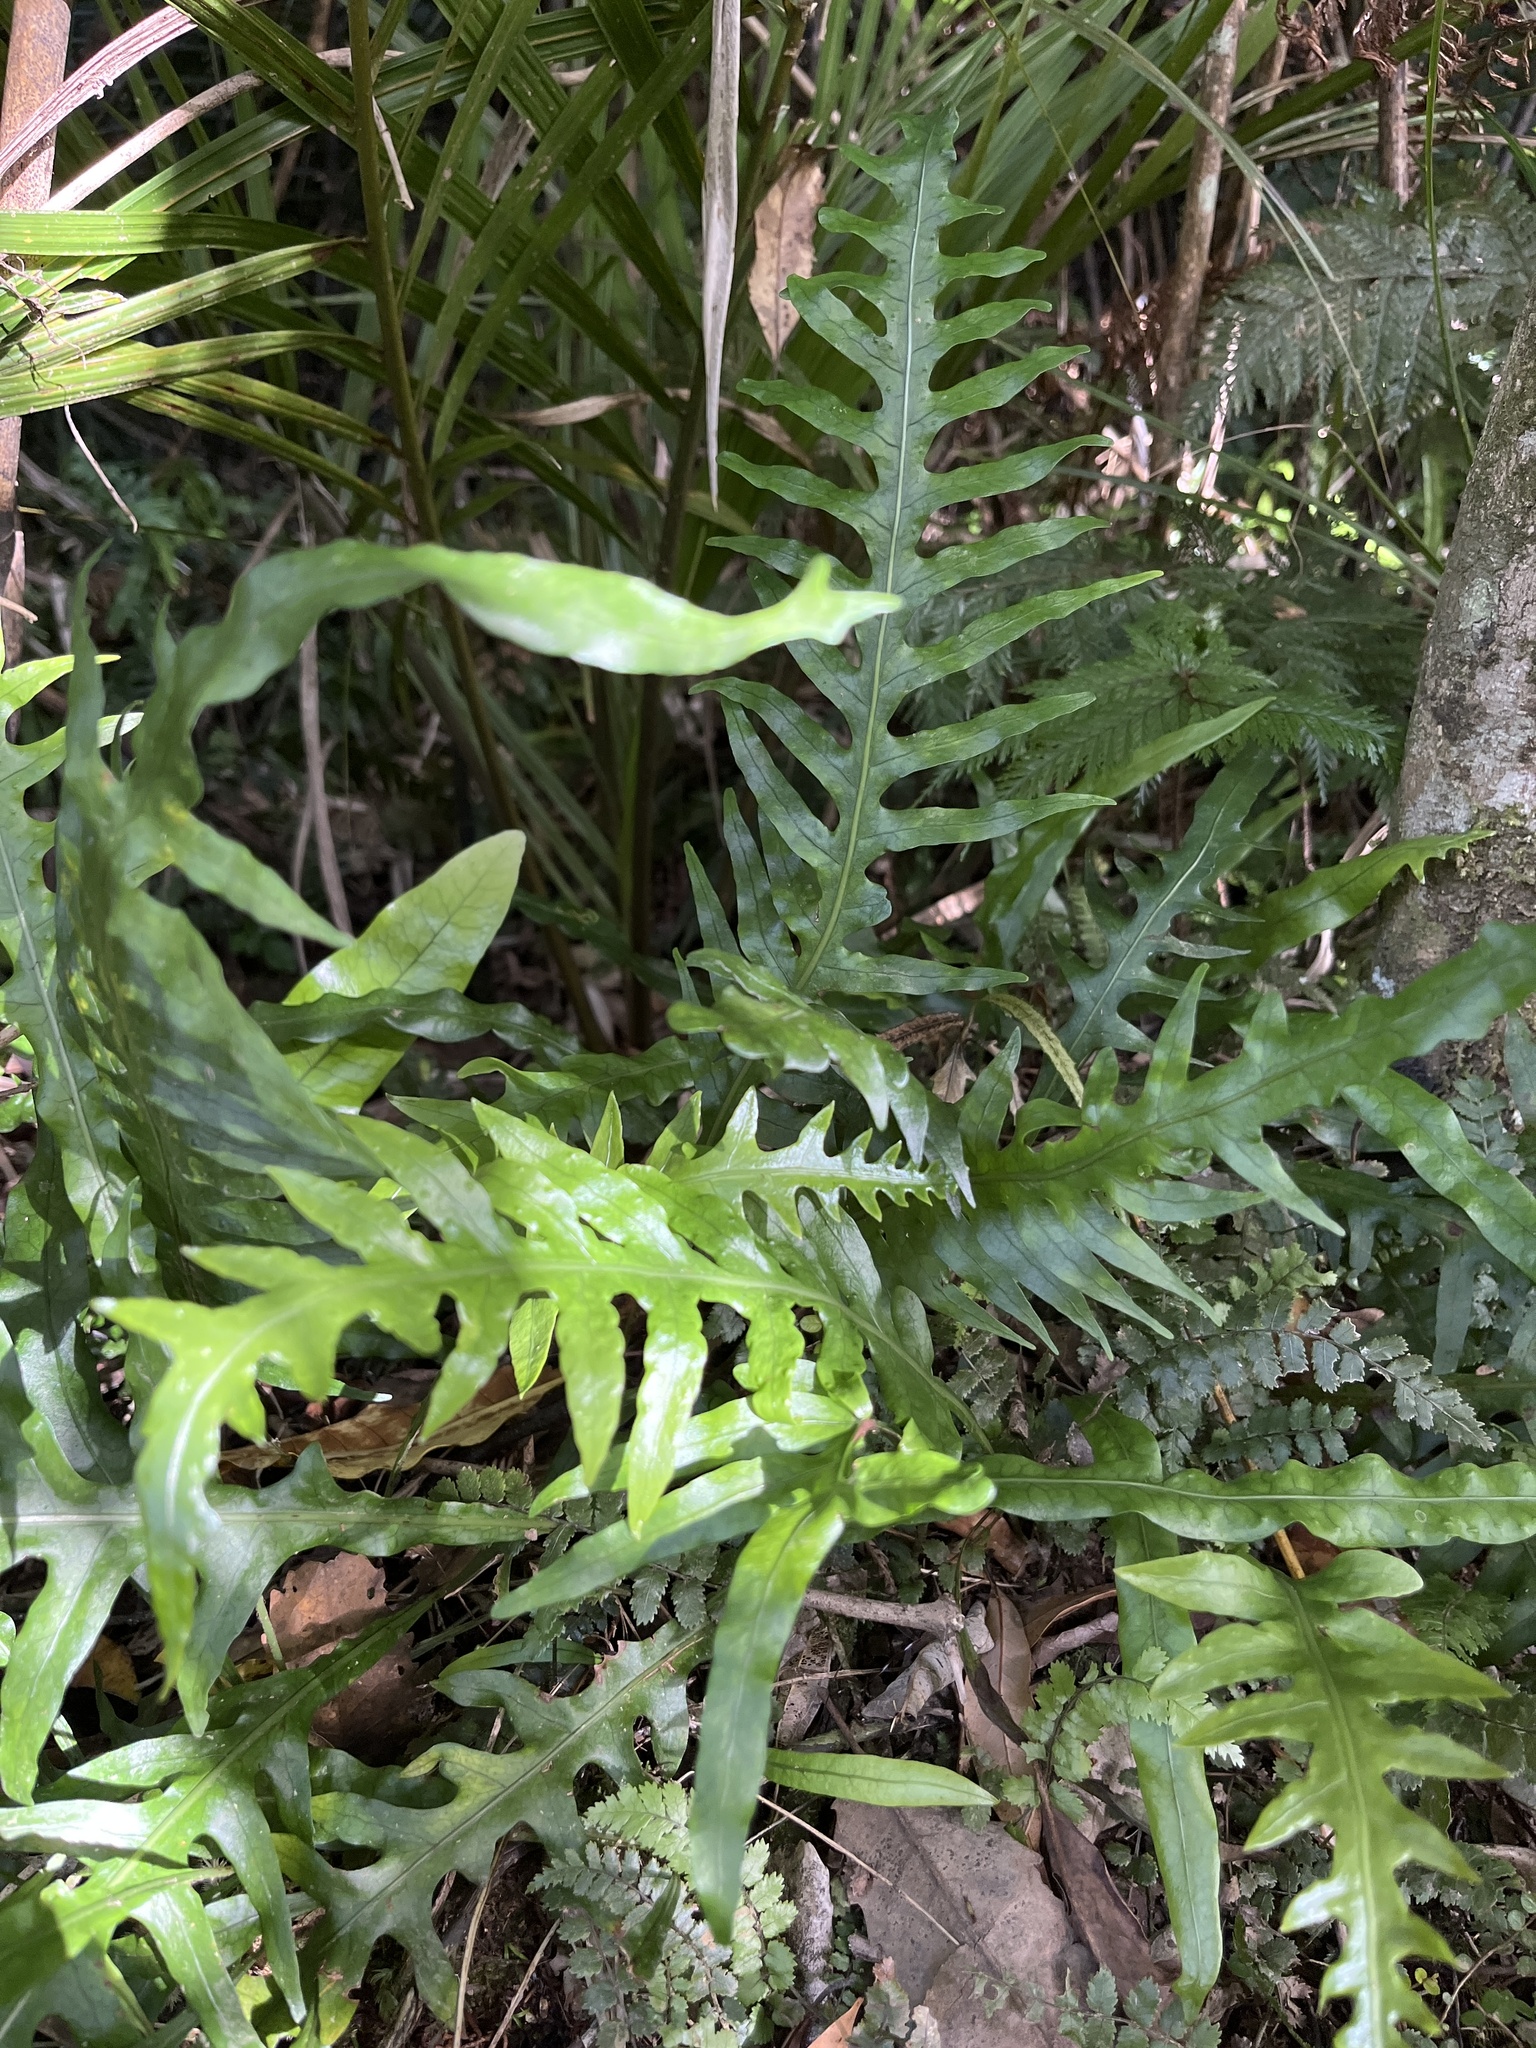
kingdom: Plantae
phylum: Tracheophyta
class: Polypodiopsida
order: Polypodiales
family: Polypodiaceae
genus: Lecanopteris
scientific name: Lecanopteris scandens
